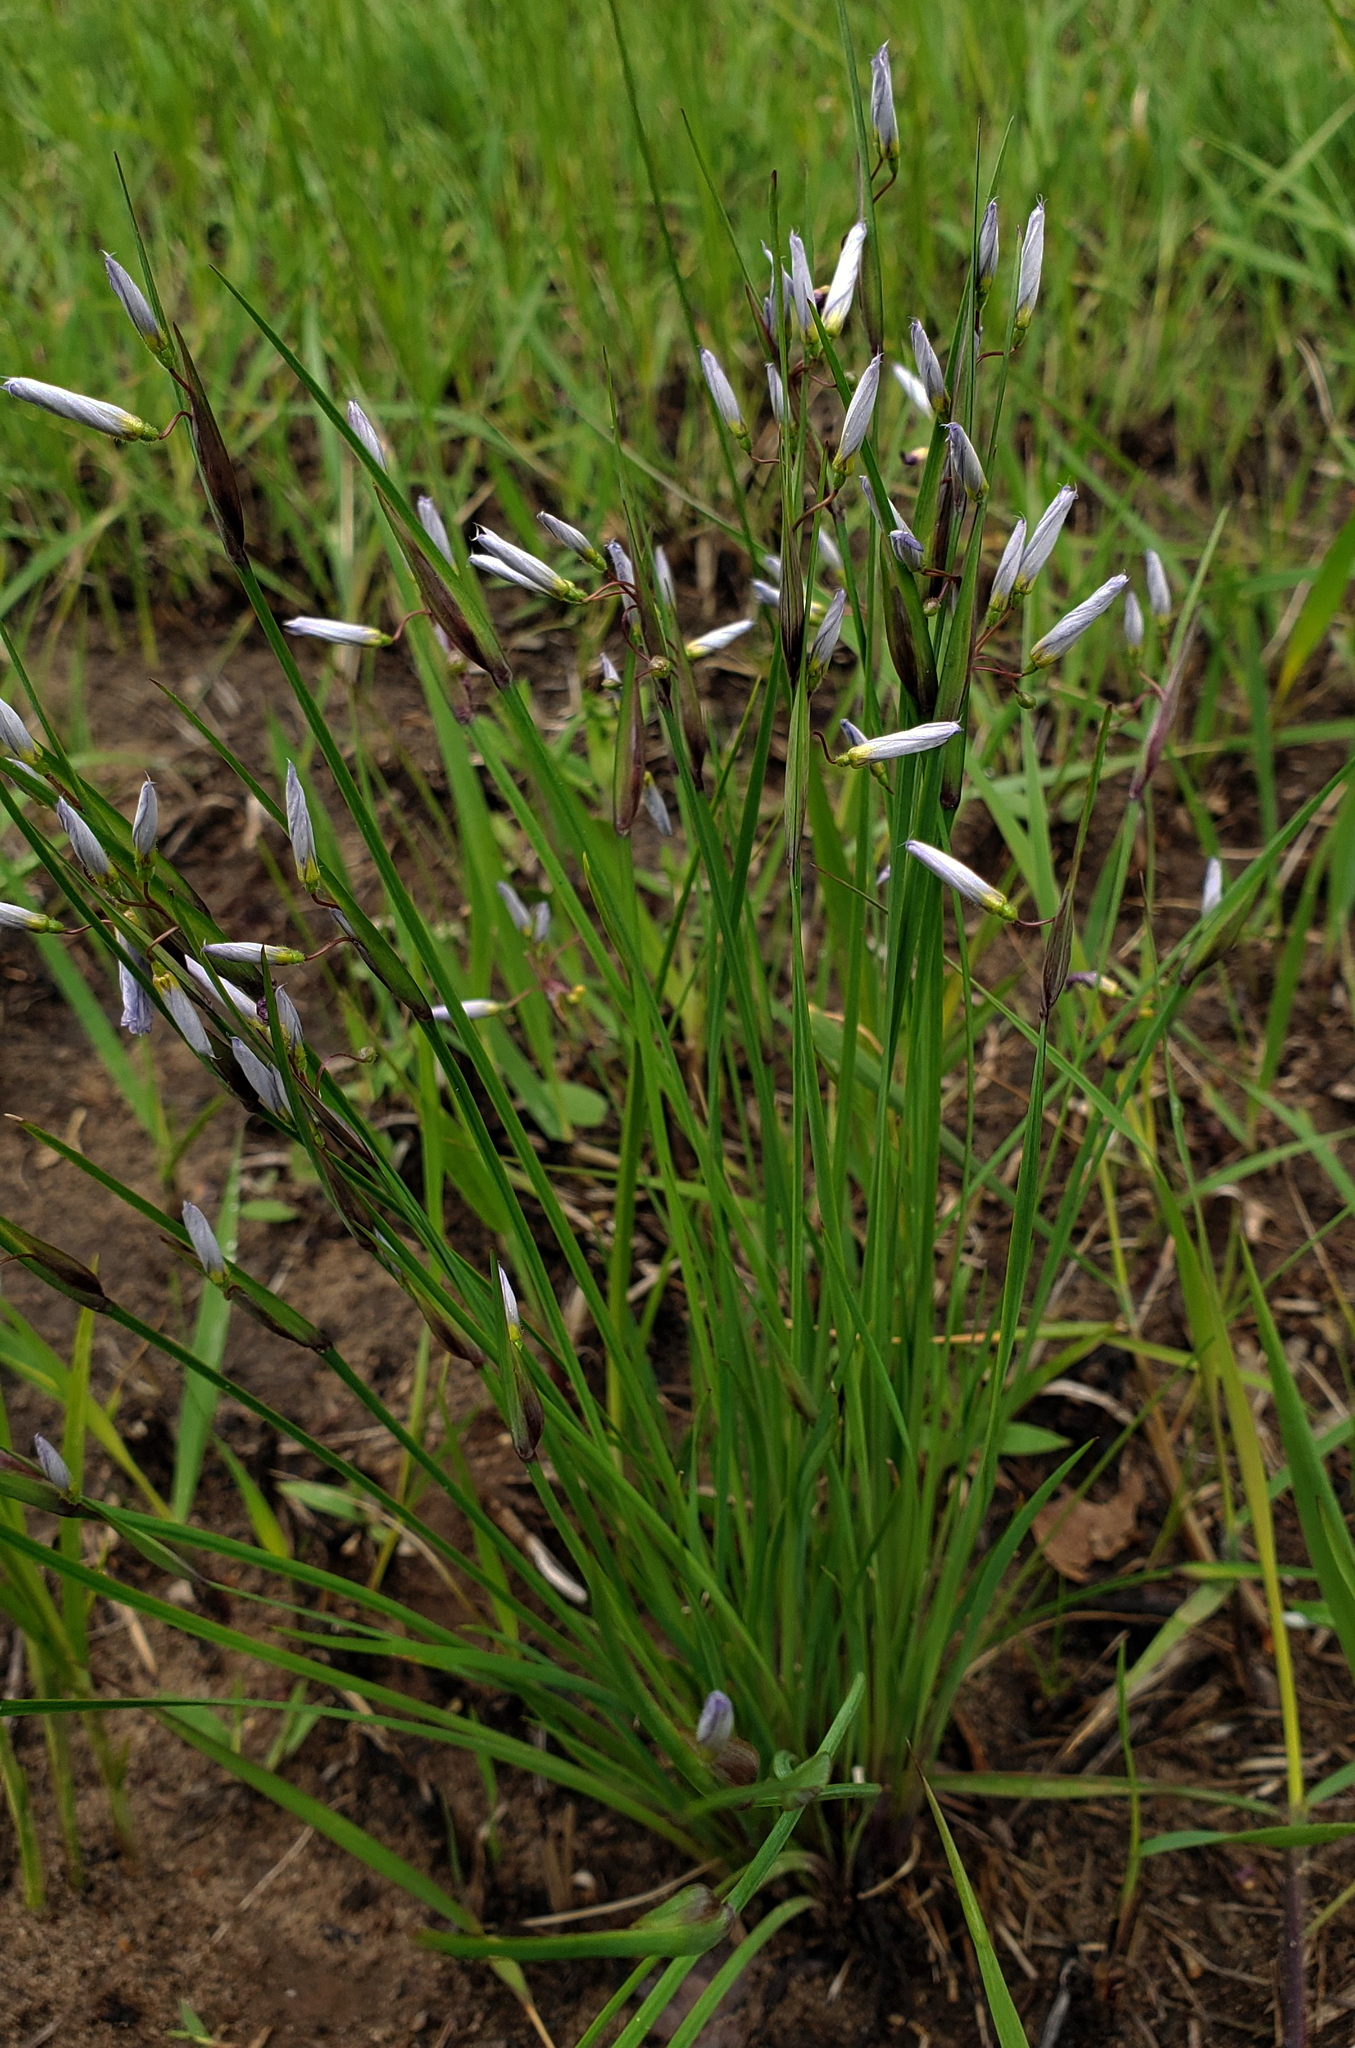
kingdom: Plantae
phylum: Tracheophyta
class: Liliopsida
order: Asparagales
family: Iridaceae
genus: Sisyrinchium
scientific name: Sisyrinchium campestre
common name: Prairie blue-eyed-grass
